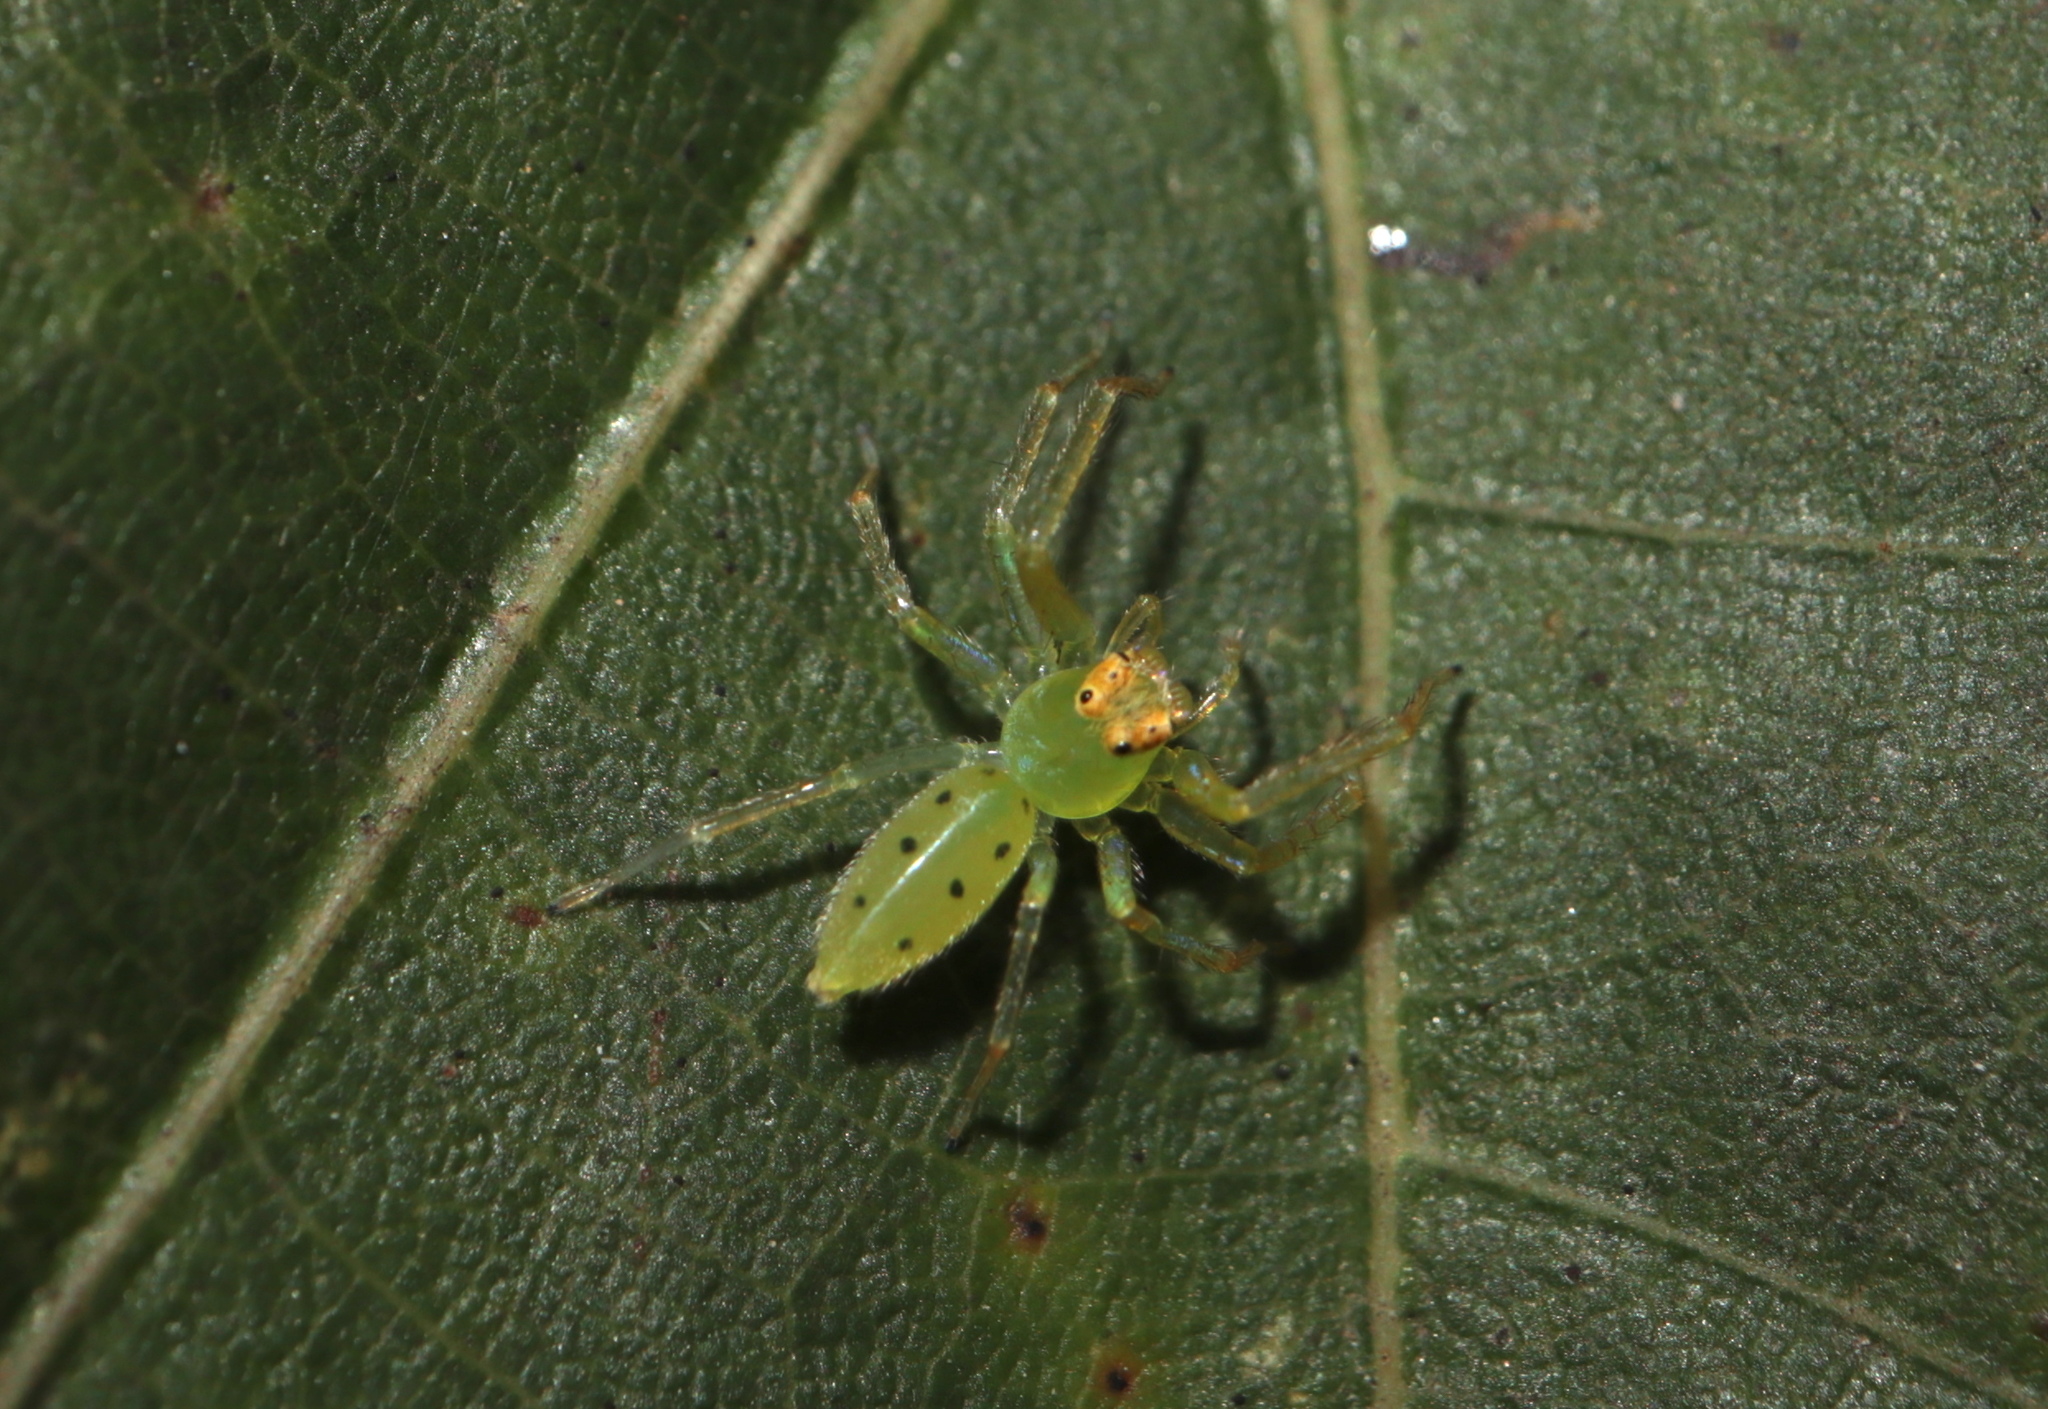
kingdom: Animalia
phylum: Arthropoda
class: Arachnida
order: Araneae
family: Salticidae
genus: Lyssomanes
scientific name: Lyssomanes viridis
